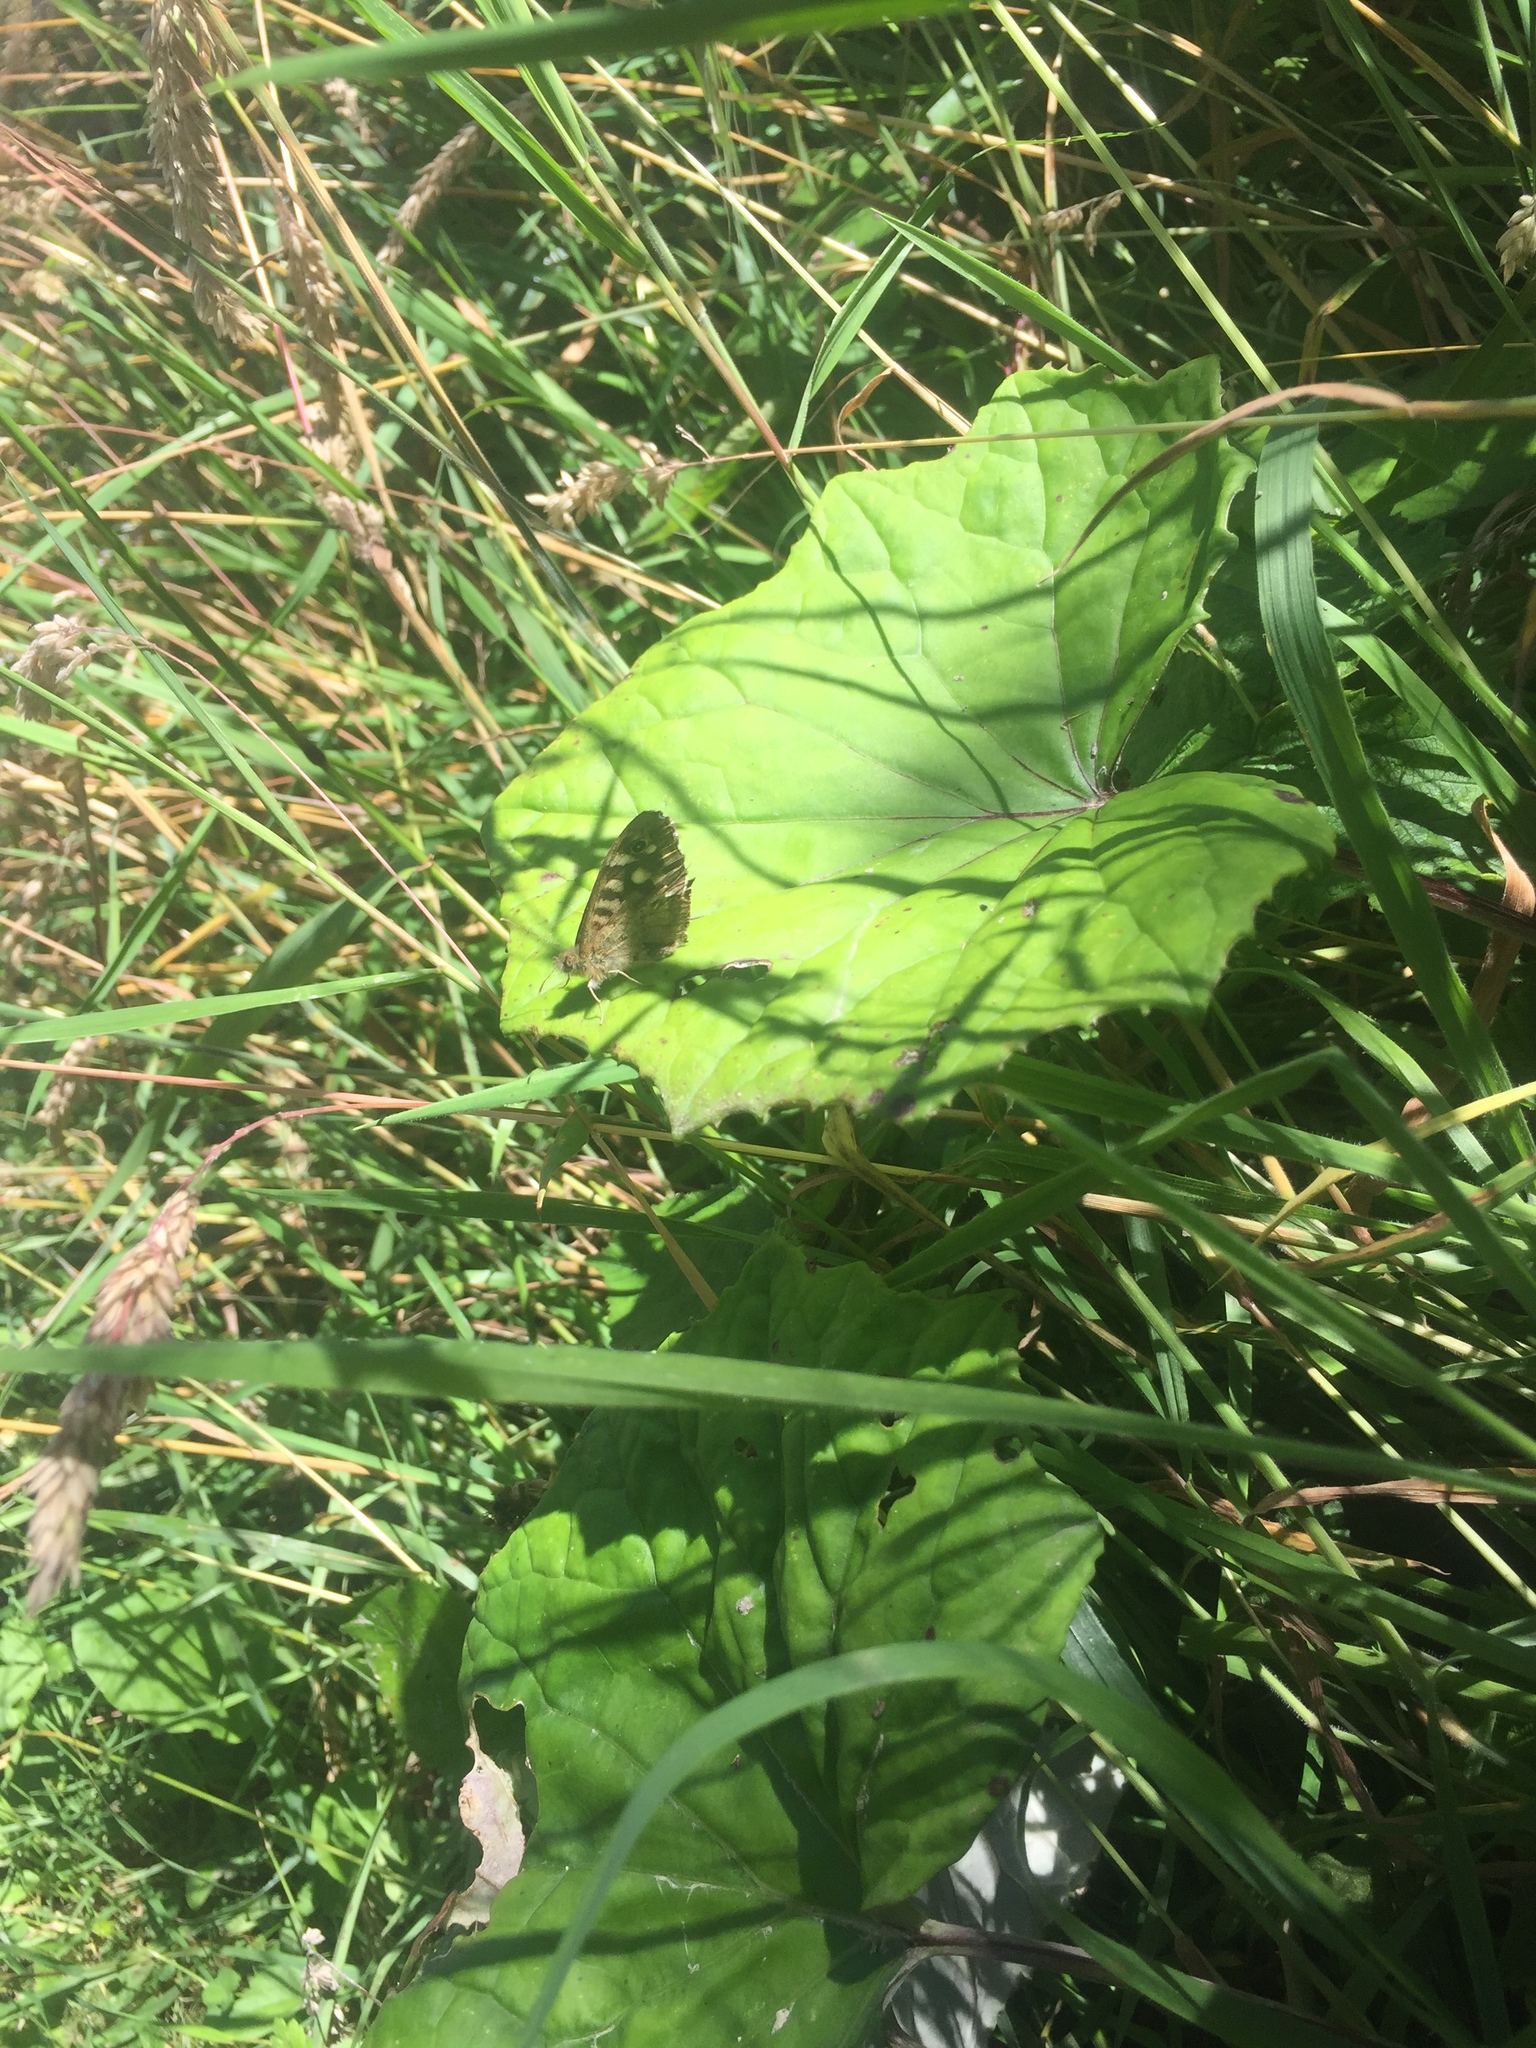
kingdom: Animalia
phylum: Arthropoda
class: Insecta
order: Lepidoptera
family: Nymphalidae
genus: Pararge
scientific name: Pararge aegeria
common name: Speckled wood
